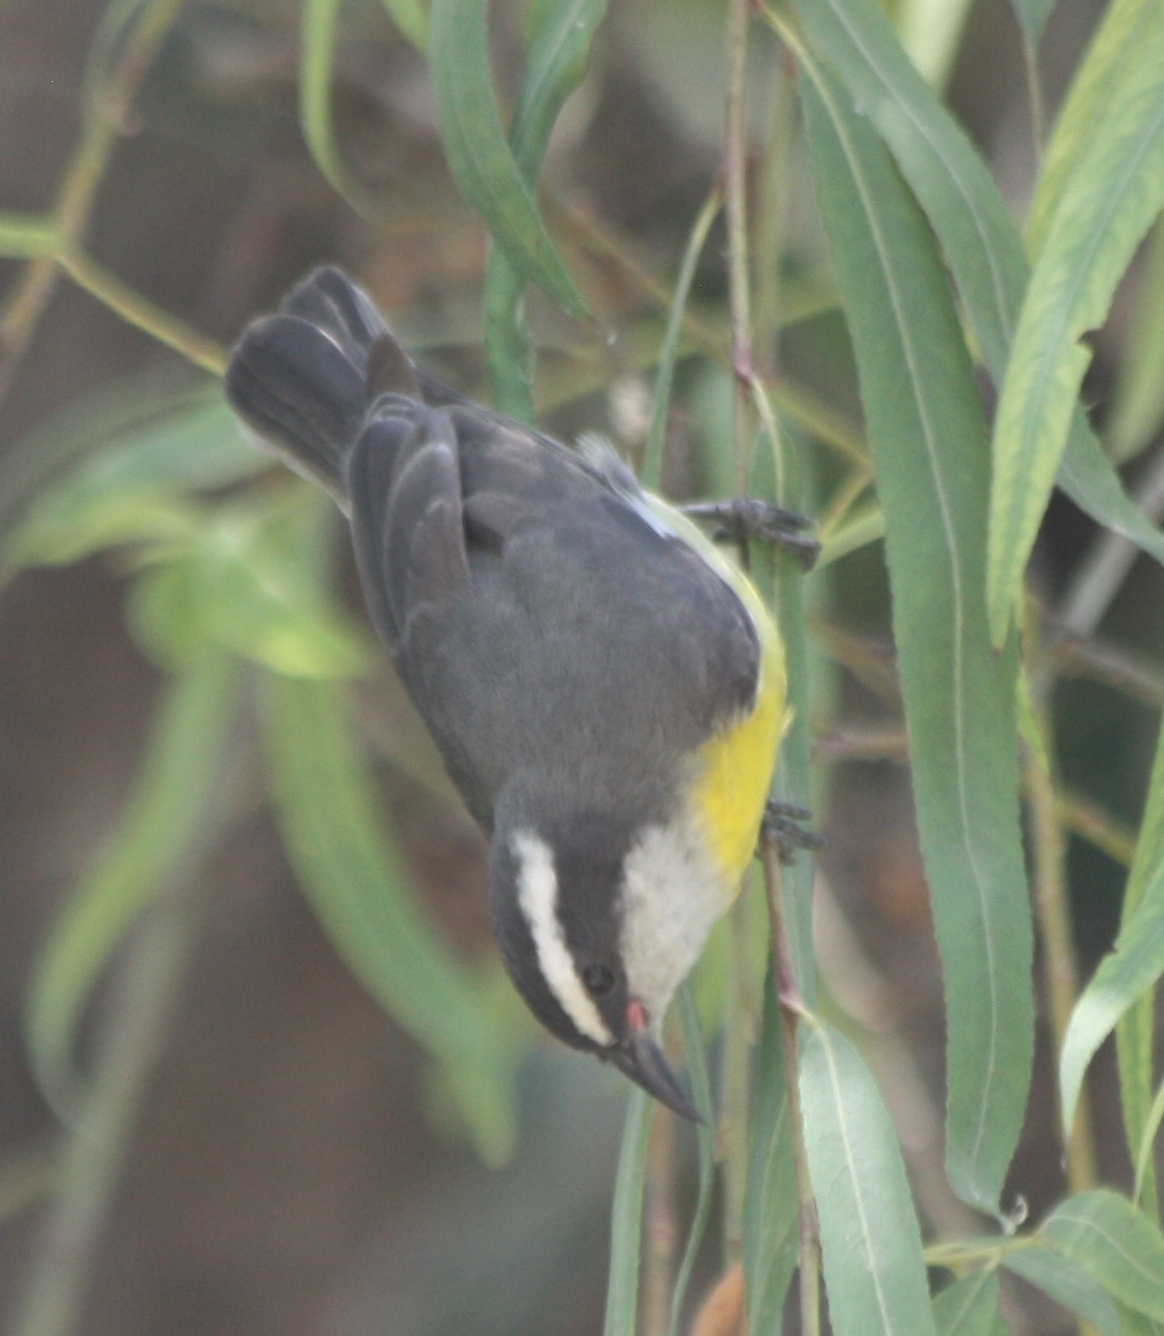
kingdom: Animalia
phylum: Chordata
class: Aves
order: Passeriformes
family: Thraupidae
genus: Coereba
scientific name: Coereba flaveola
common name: Bananaquit
